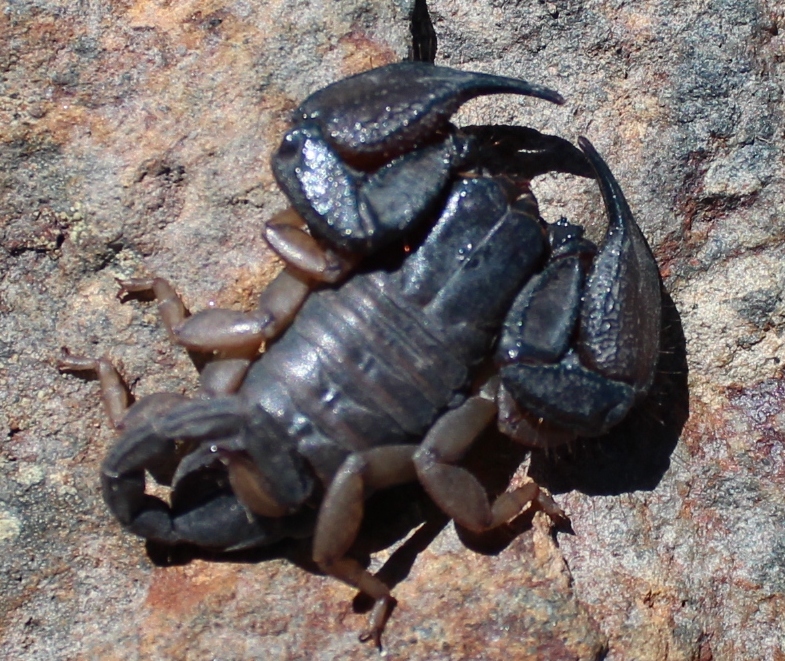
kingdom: Animalia
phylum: Arthropoda
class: Arachnida
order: Scorpiones
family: Hormuridae
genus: Opisthacanthus
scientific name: Opisthacanthus capensis
